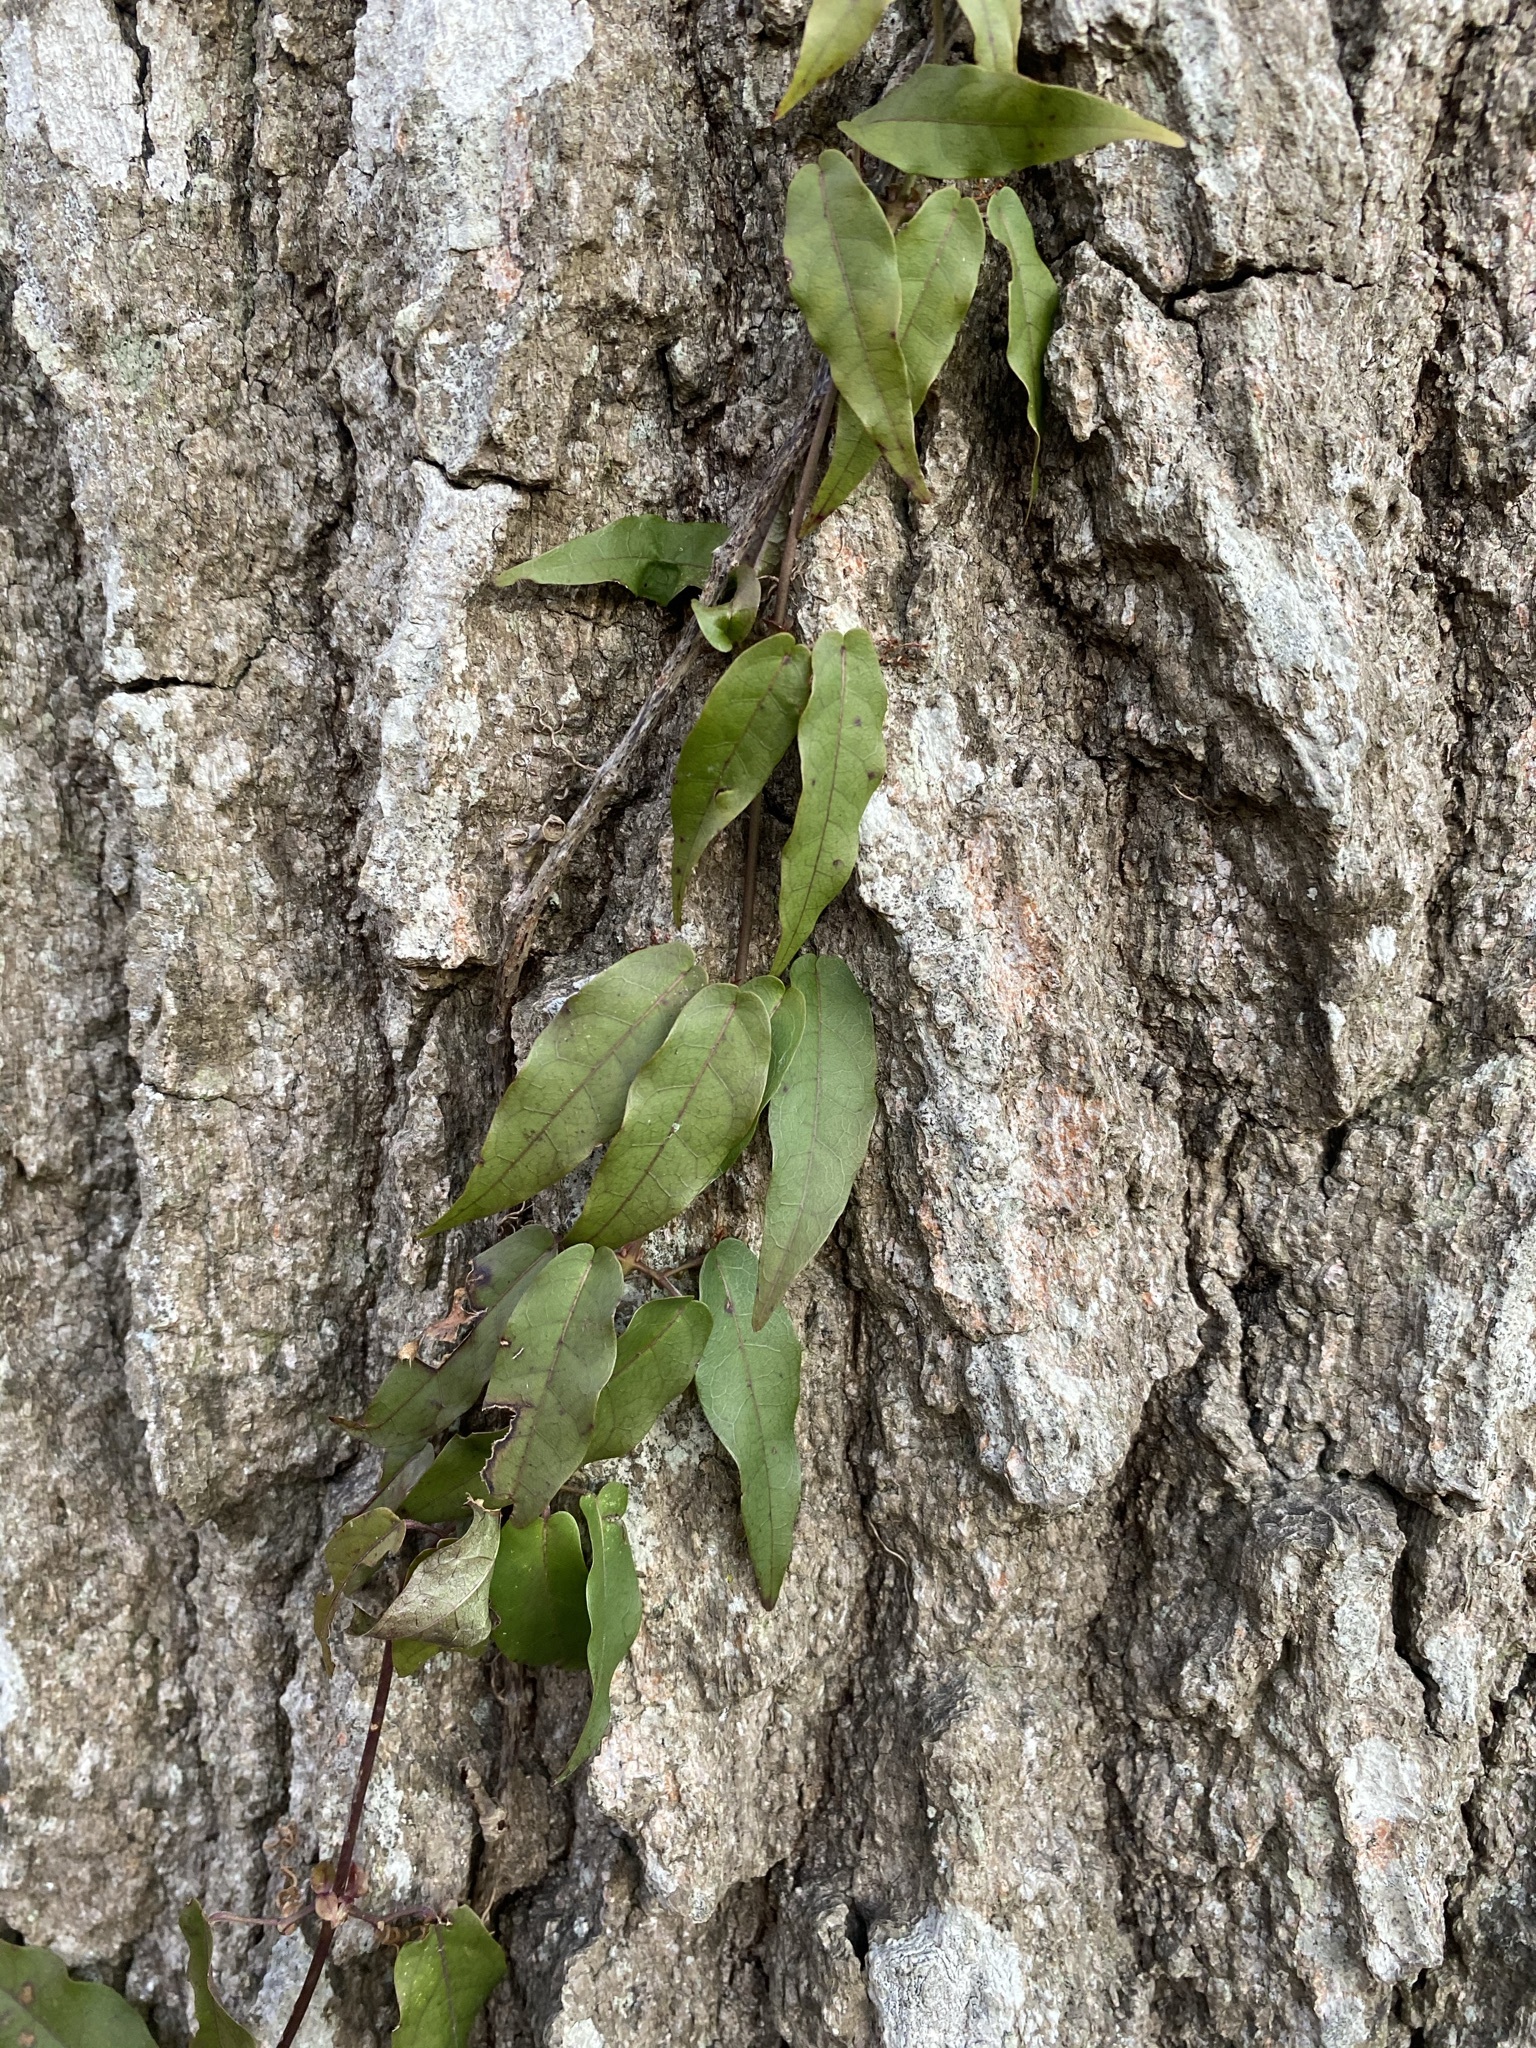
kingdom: Plantae
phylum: Tracheophyta
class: Magnoliopsida
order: Lamiales
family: Bignoniaceae
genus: Bignonia
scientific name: Bignonia capreolata
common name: Crossvine
